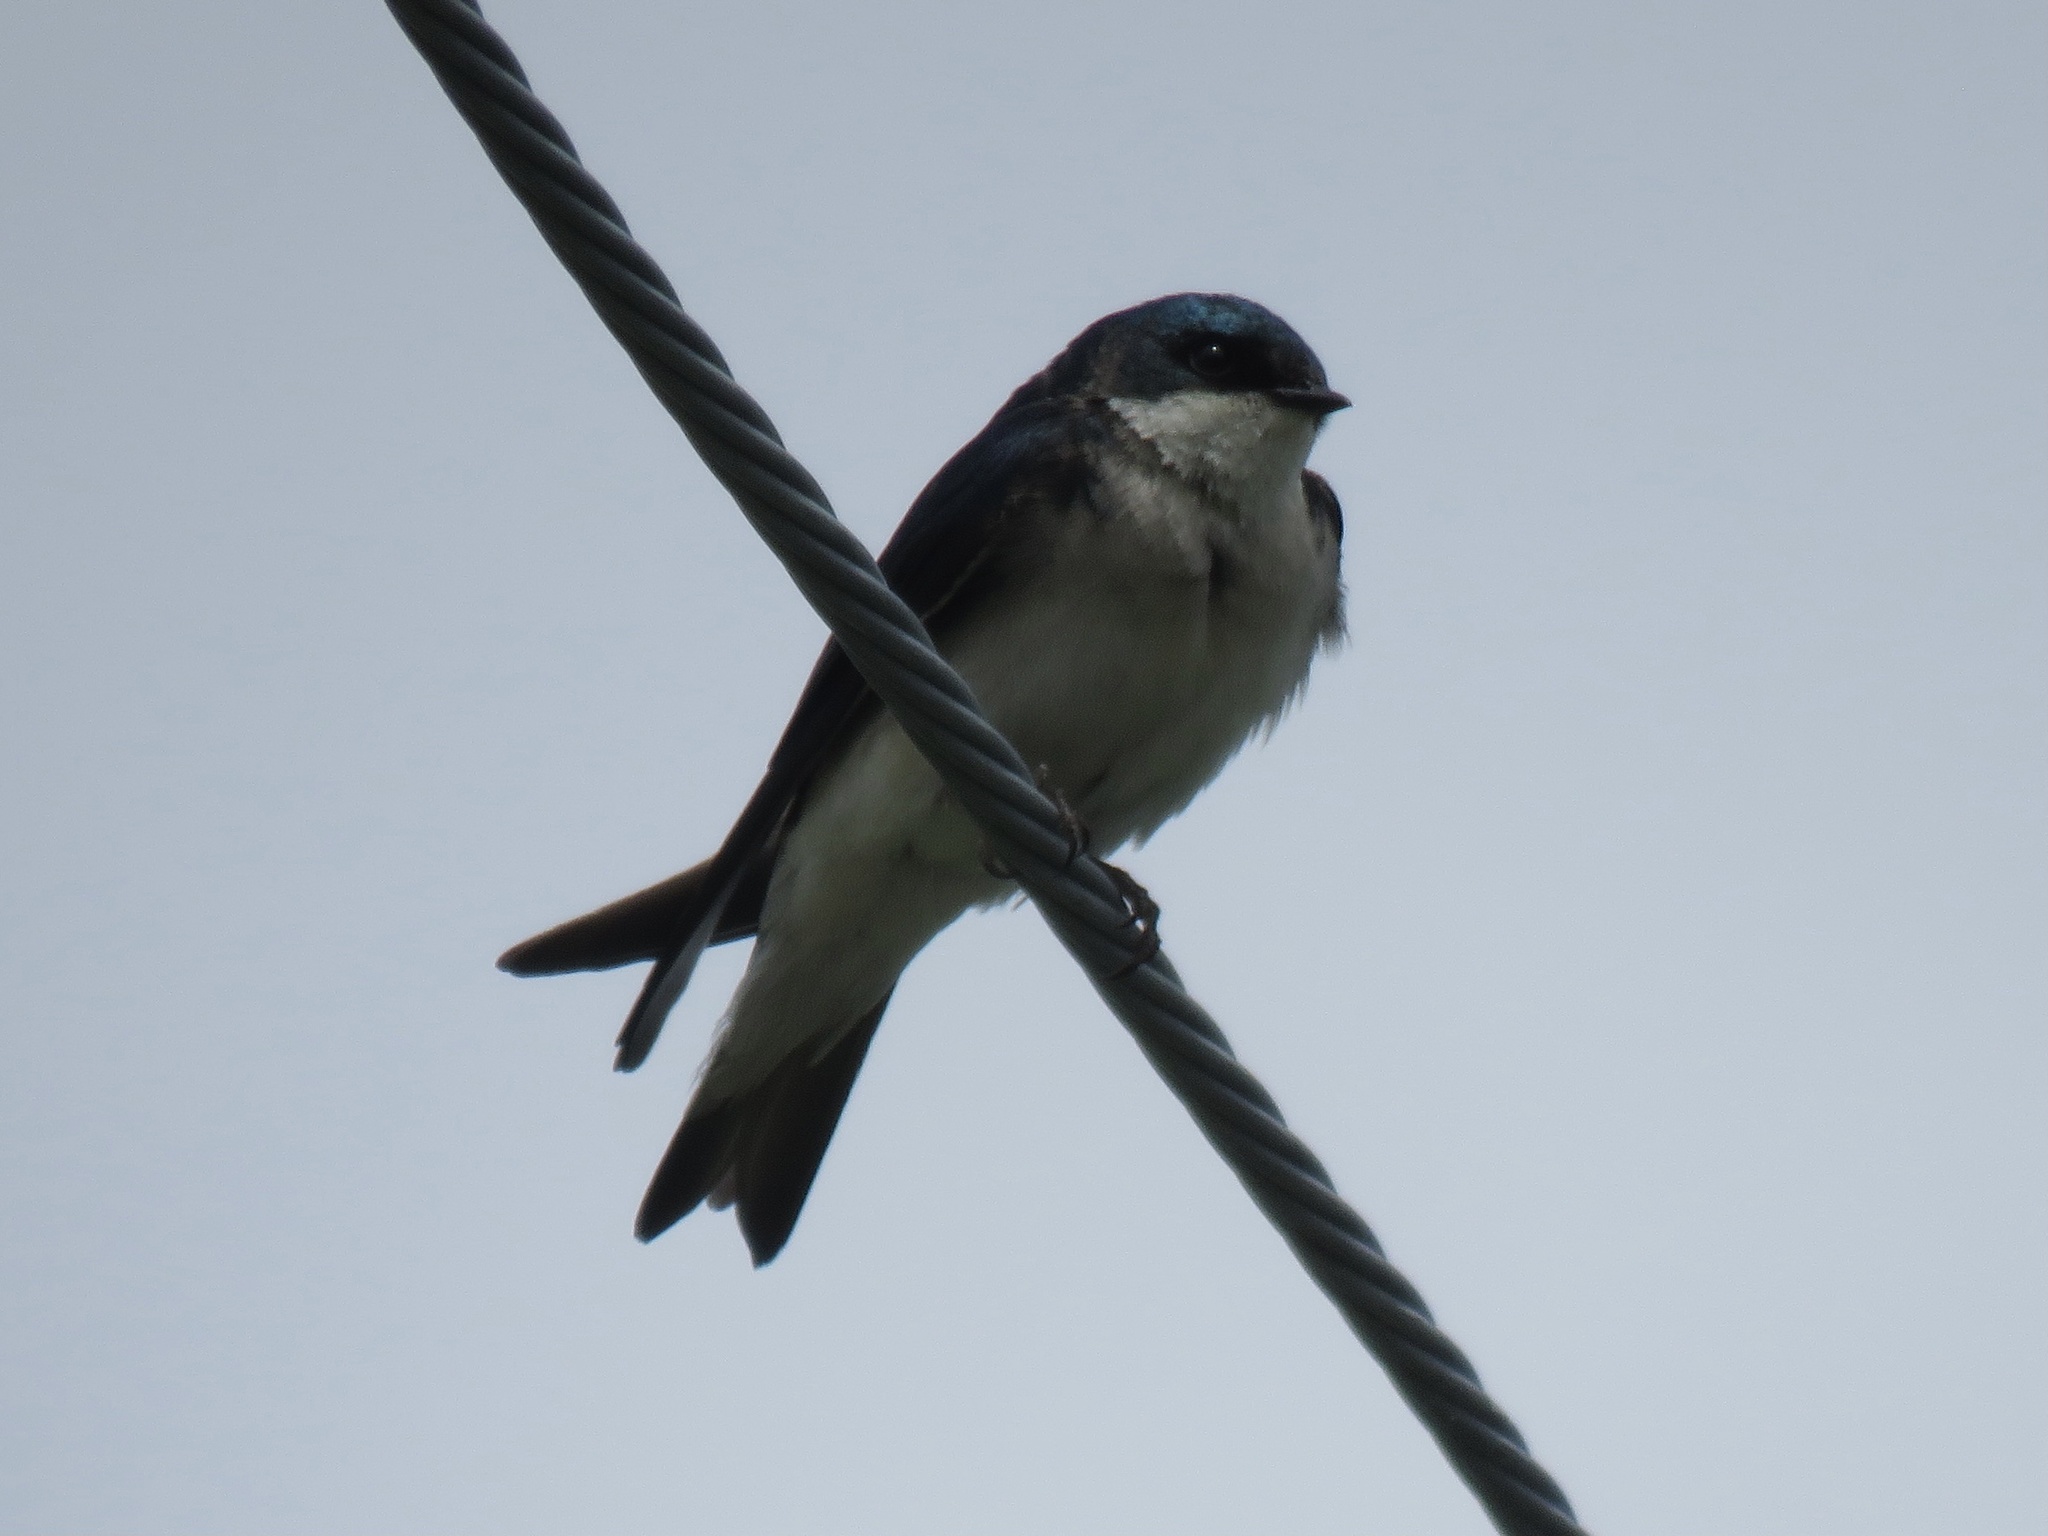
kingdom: Animalia
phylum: Chordata
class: Aves
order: Passeriformes
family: Hirundinidae
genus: Tachycineta
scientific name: Tachycineta bicolor
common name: Tree swallow
